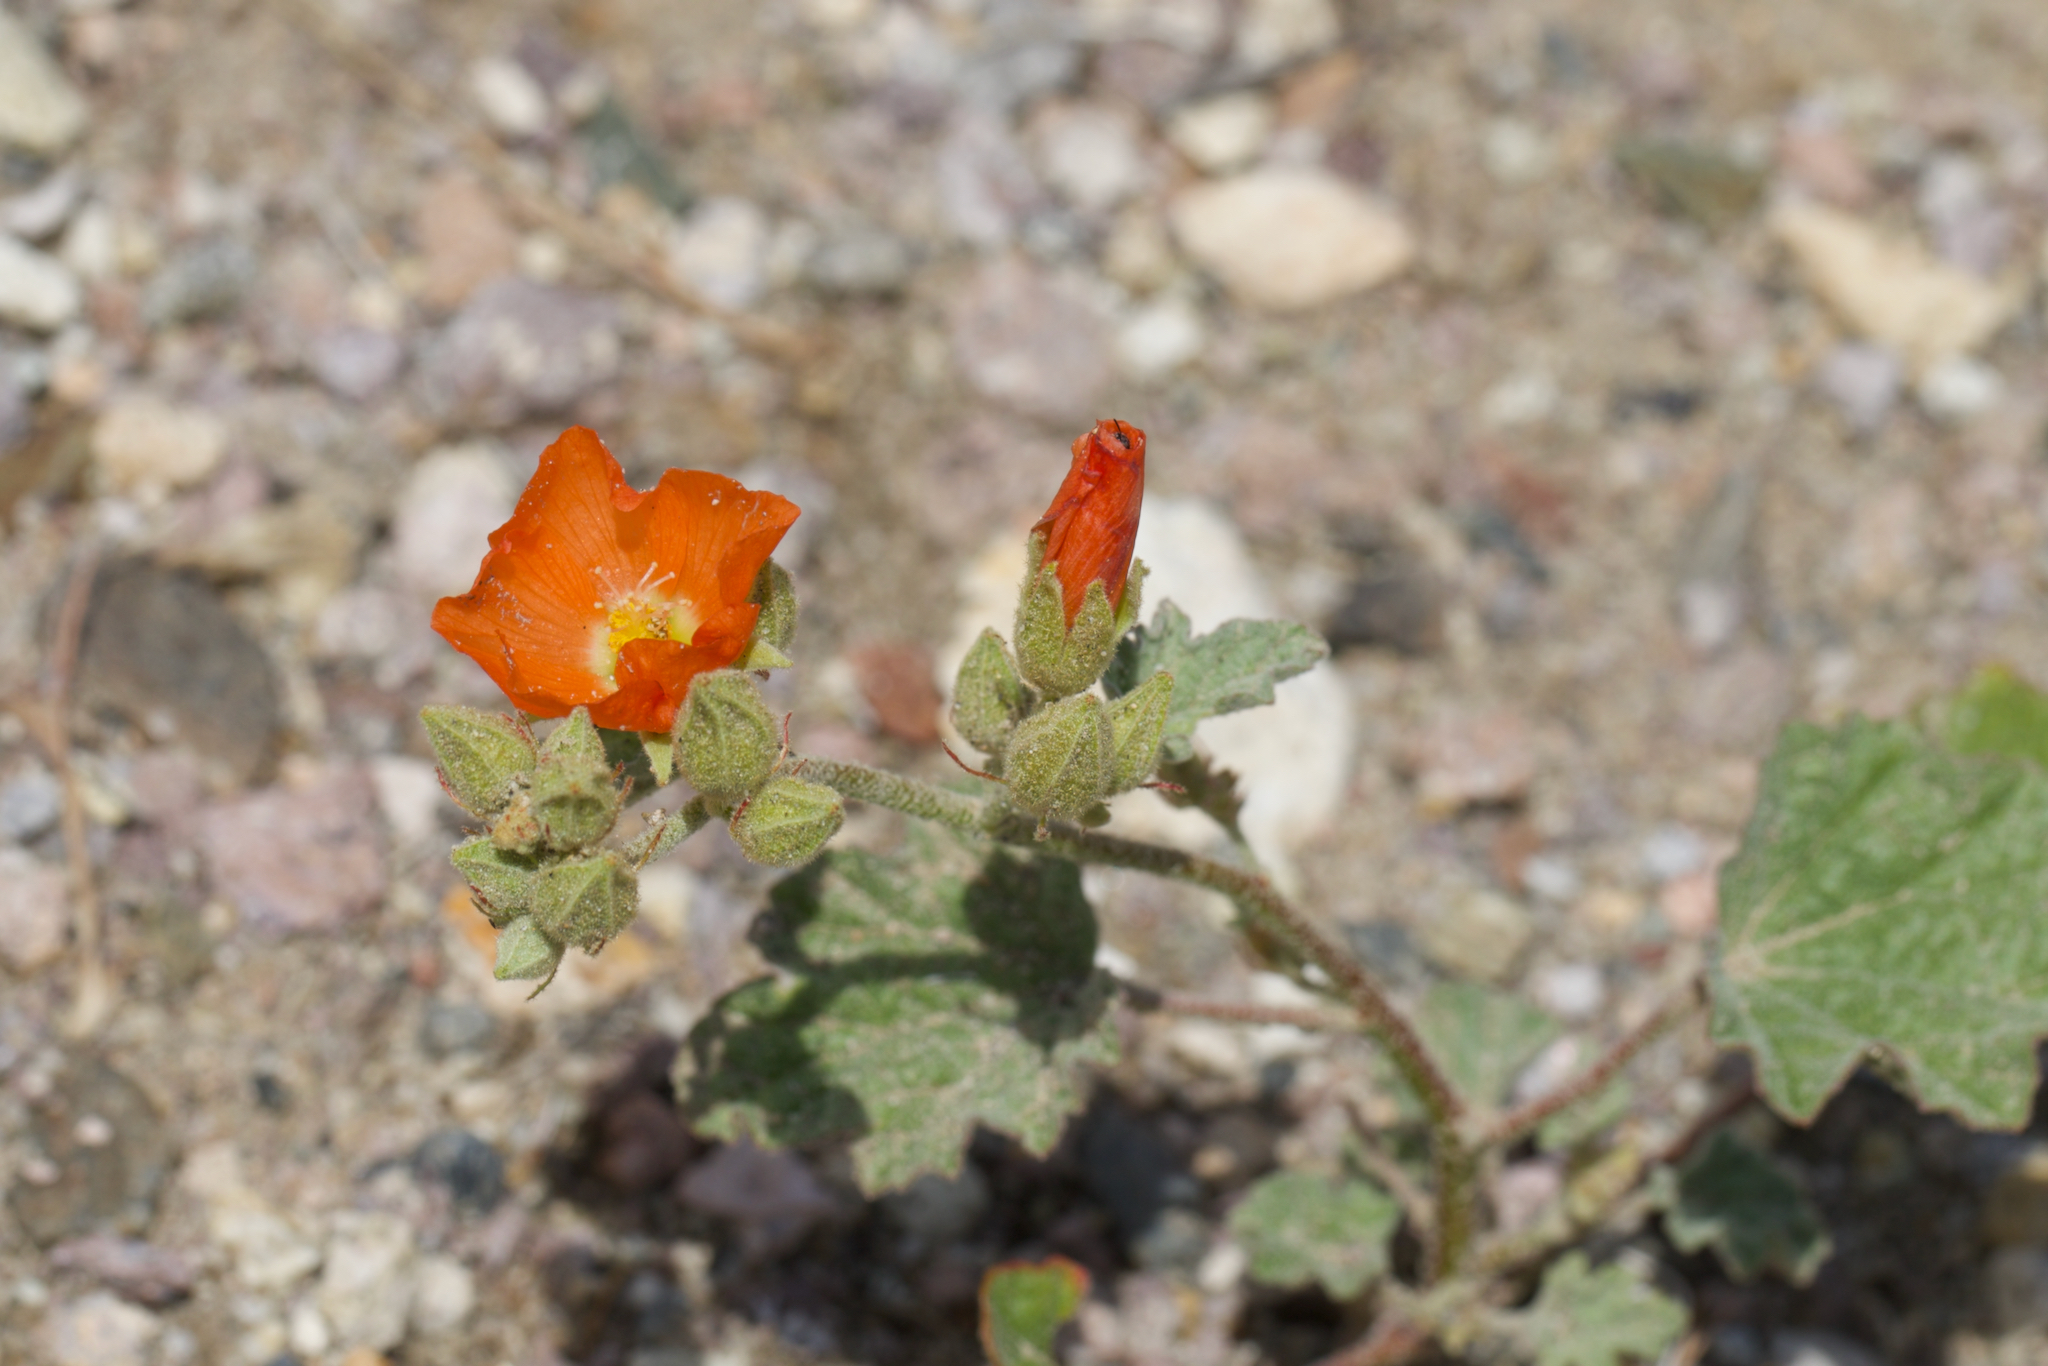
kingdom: Plantae
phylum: Tracheophyta
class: Magnoliopsida
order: Malvales
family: Malvaceae
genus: Sphaeralcea
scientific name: Sphaeralcea ambigua
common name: Apricot globe-mallow
